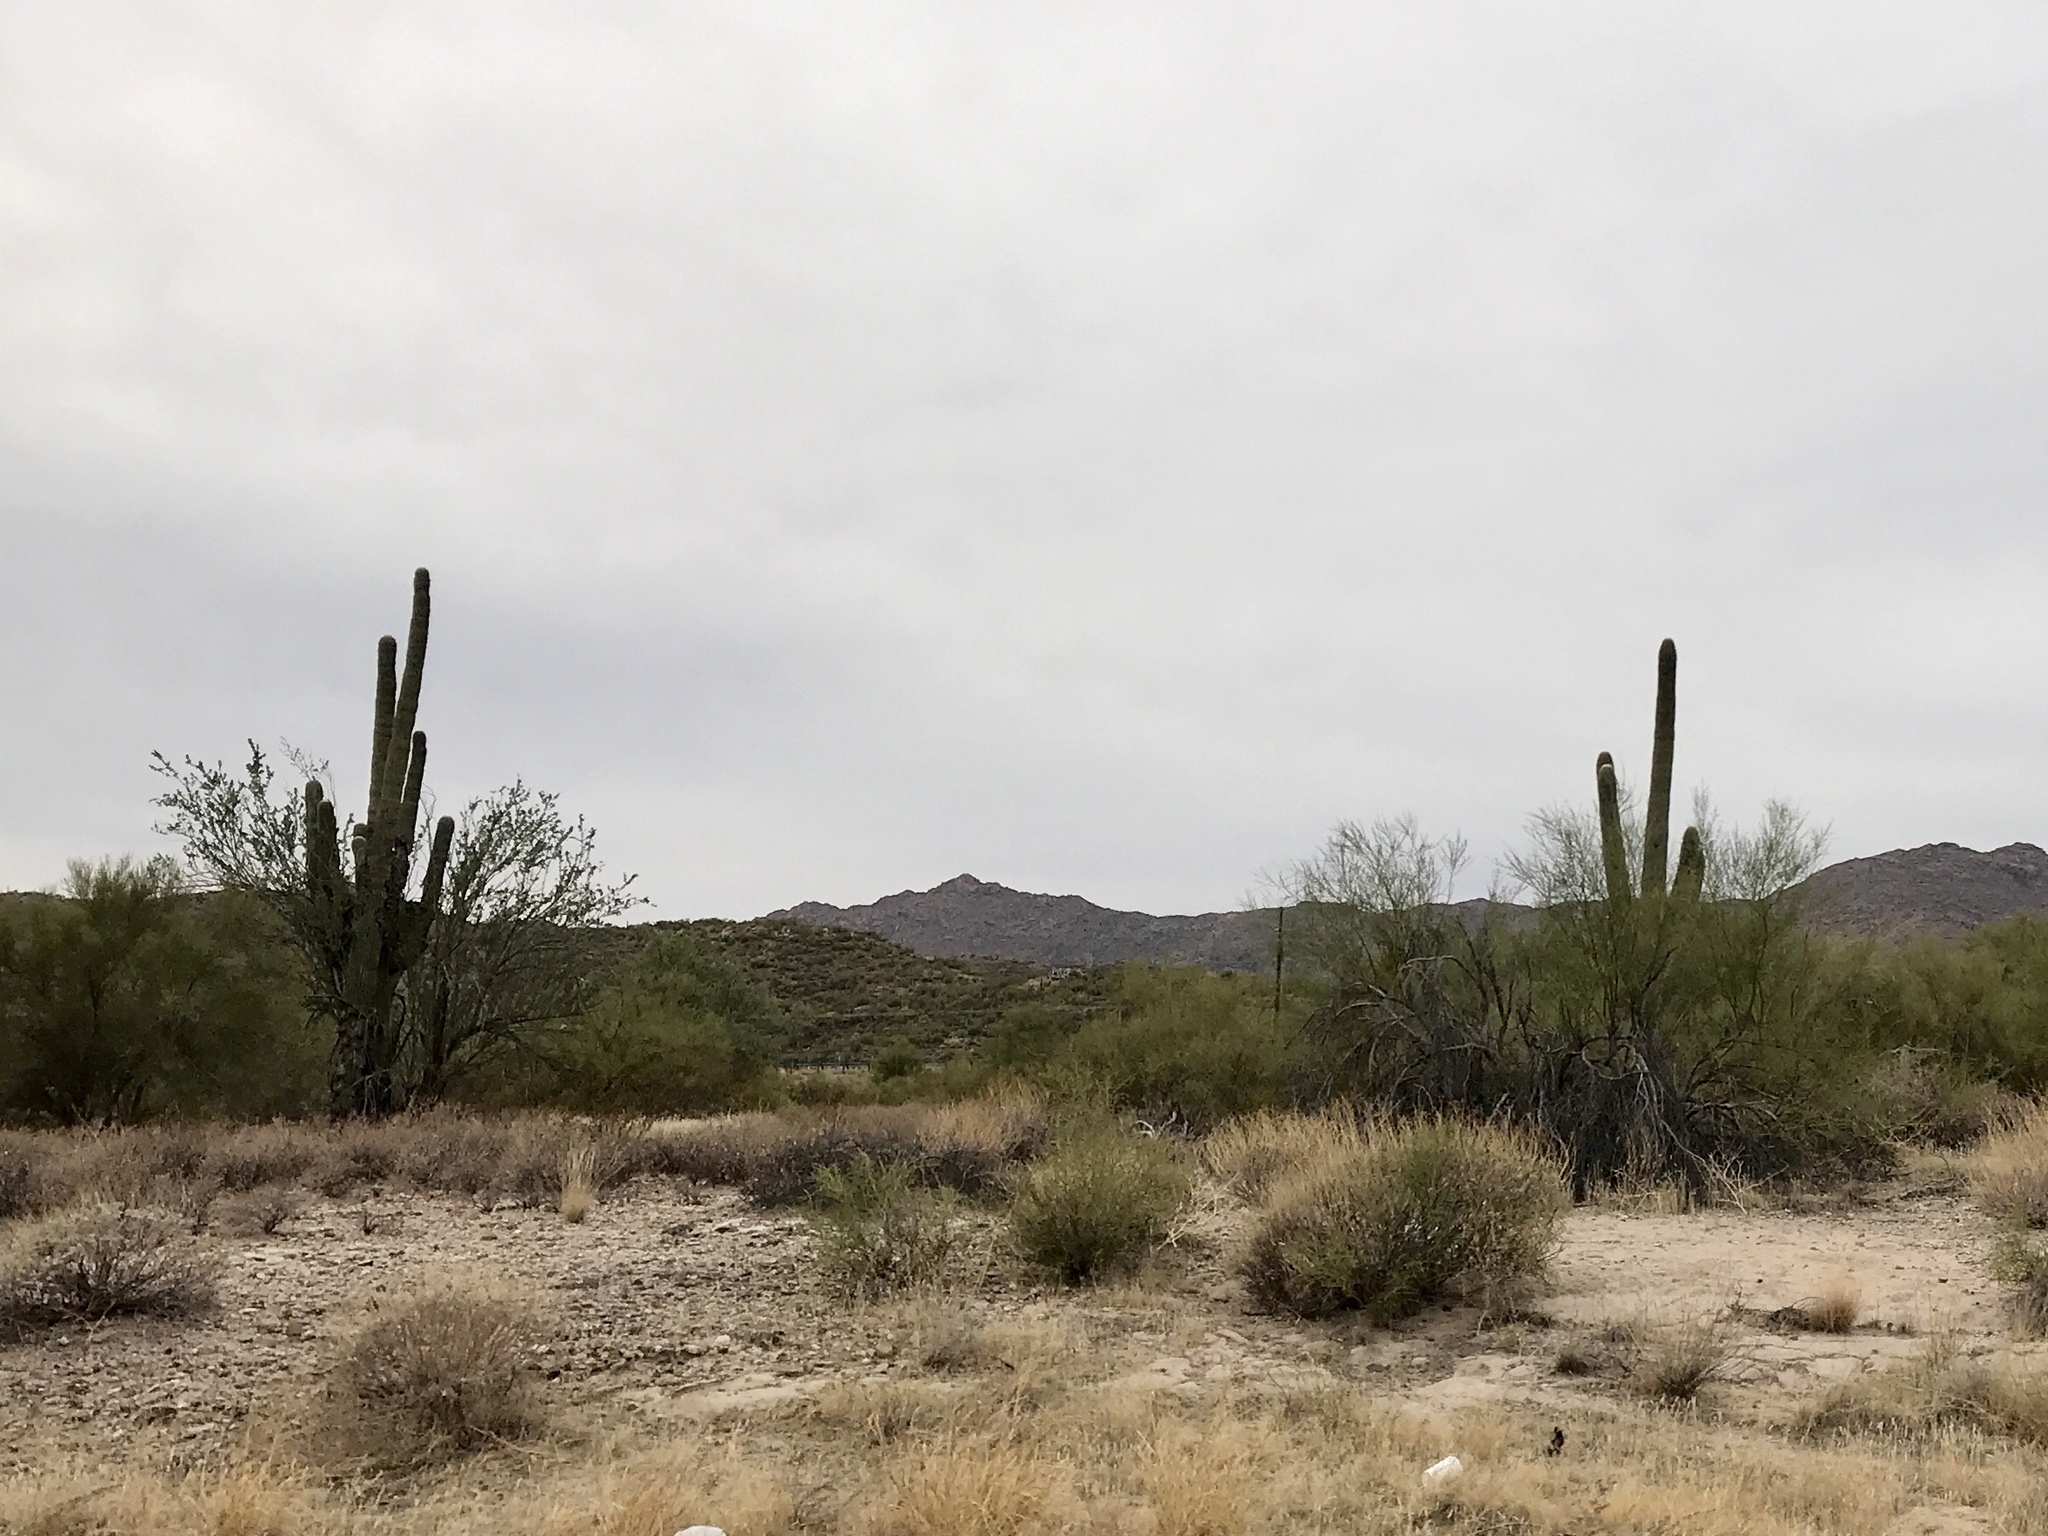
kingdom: Plantae
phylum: Tracheophyta
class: Magnoliopsida
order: Caryophyllales
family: Cactaceae
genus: Carnegiea
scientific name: Carnegiea gigantea
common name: Saguaro
